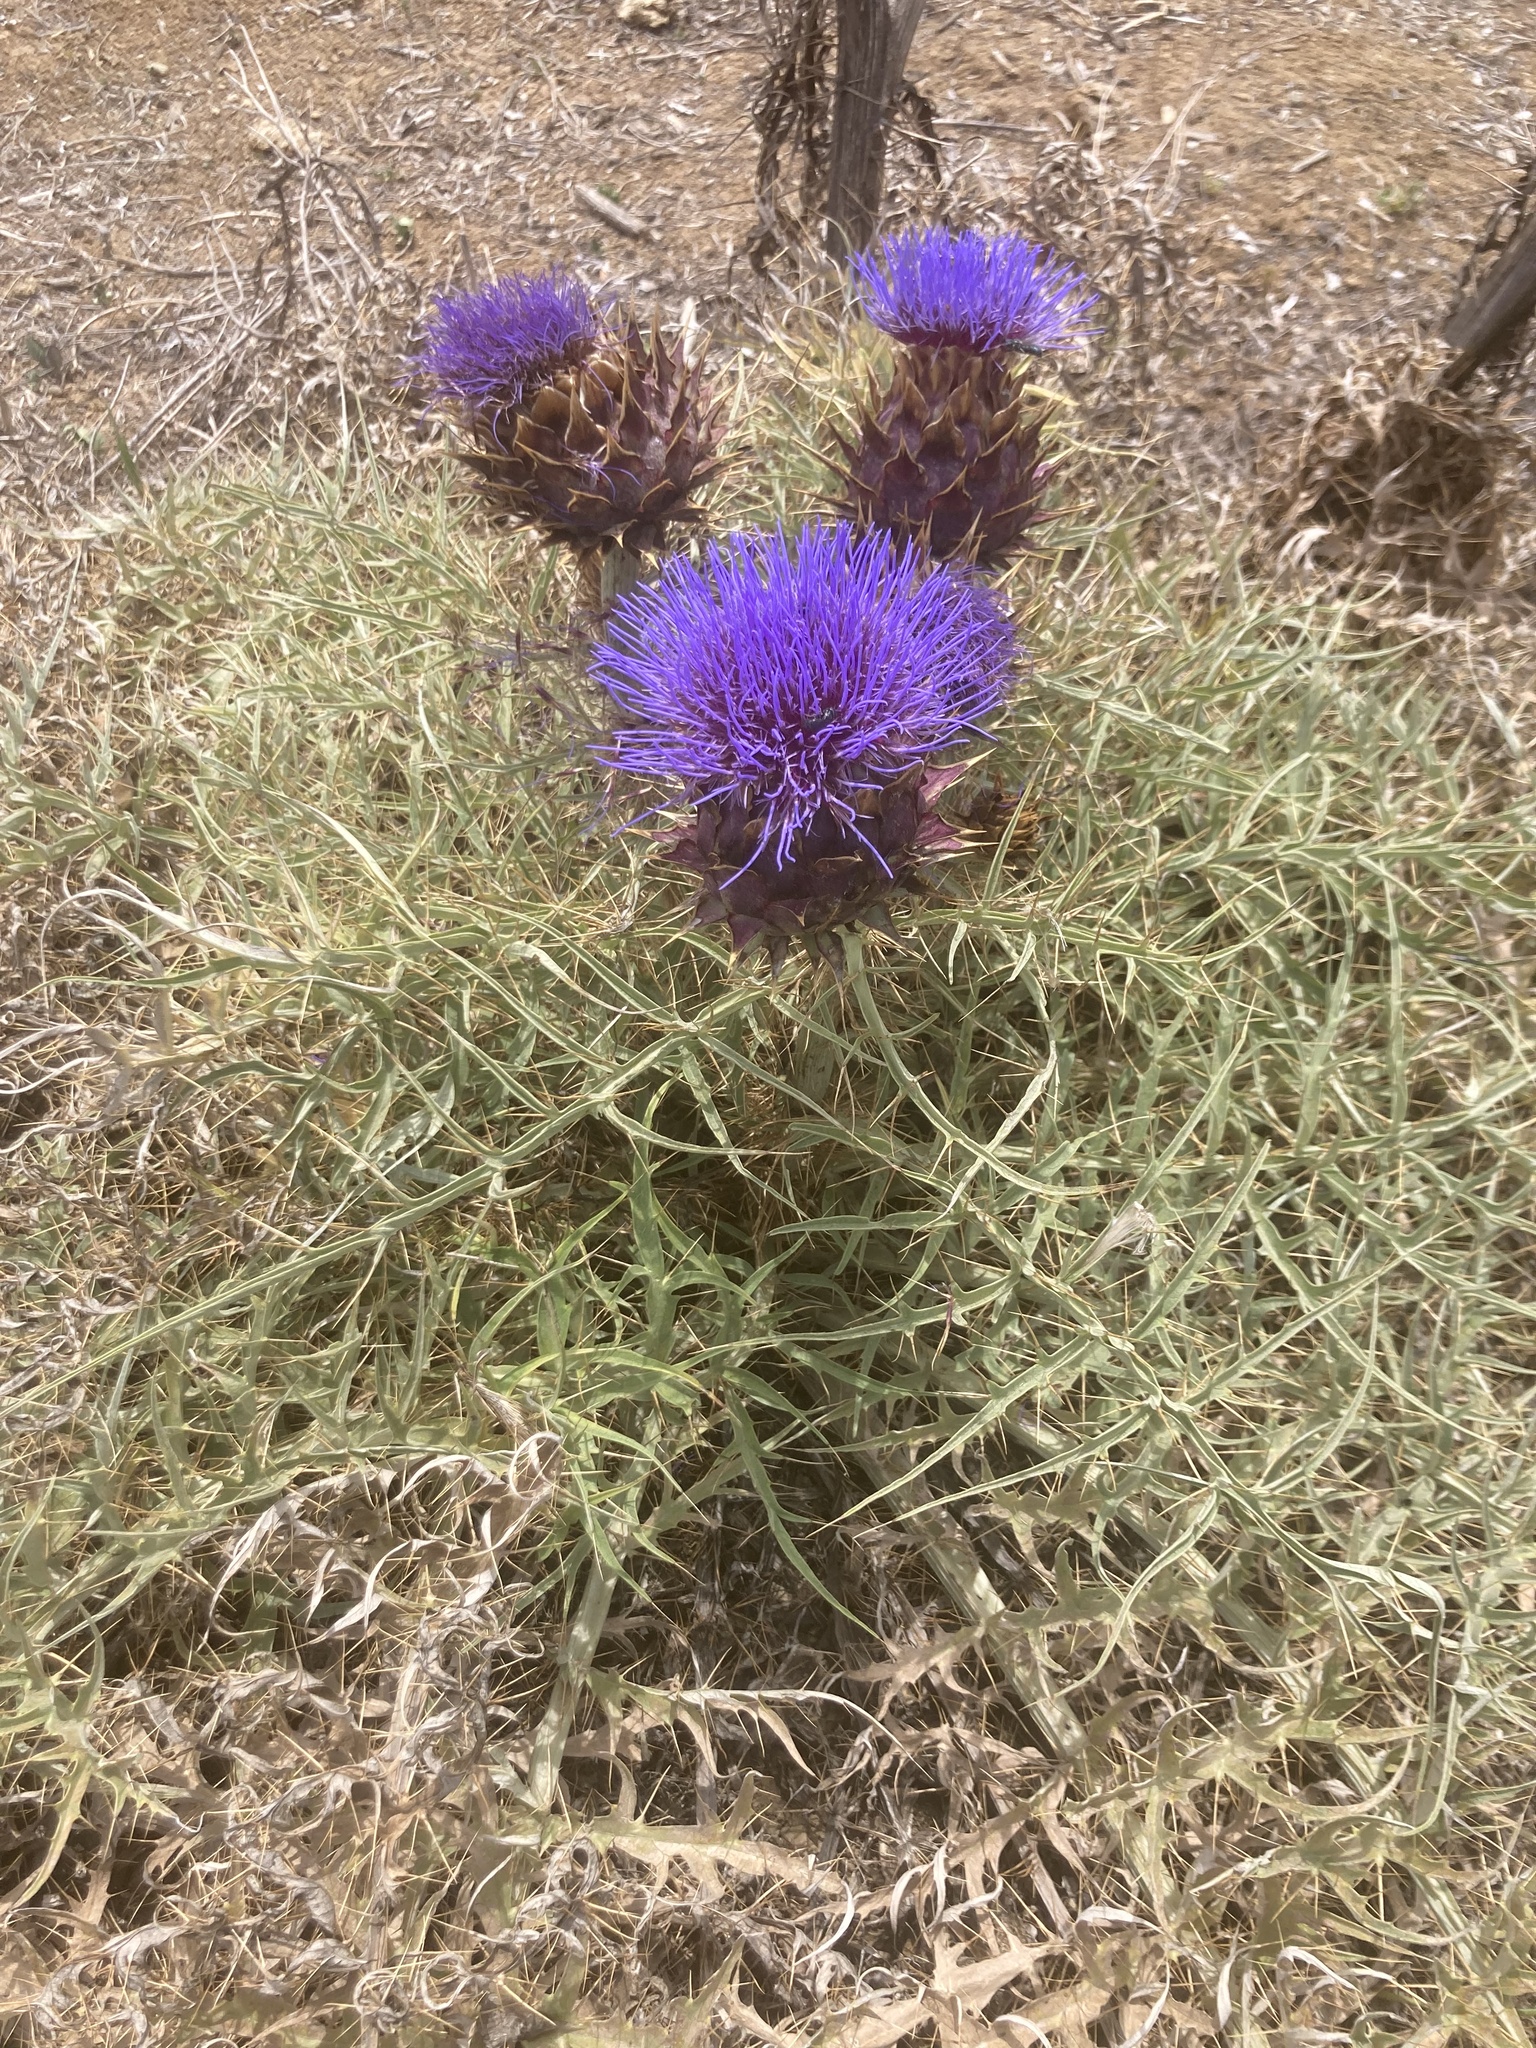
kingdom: Plantae
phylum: Tracheophyta
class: Magnoliopsida
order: Asterales
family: Asteraceae
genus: Cynara
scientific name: Cynara cardunculus
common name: Globe artichoke
